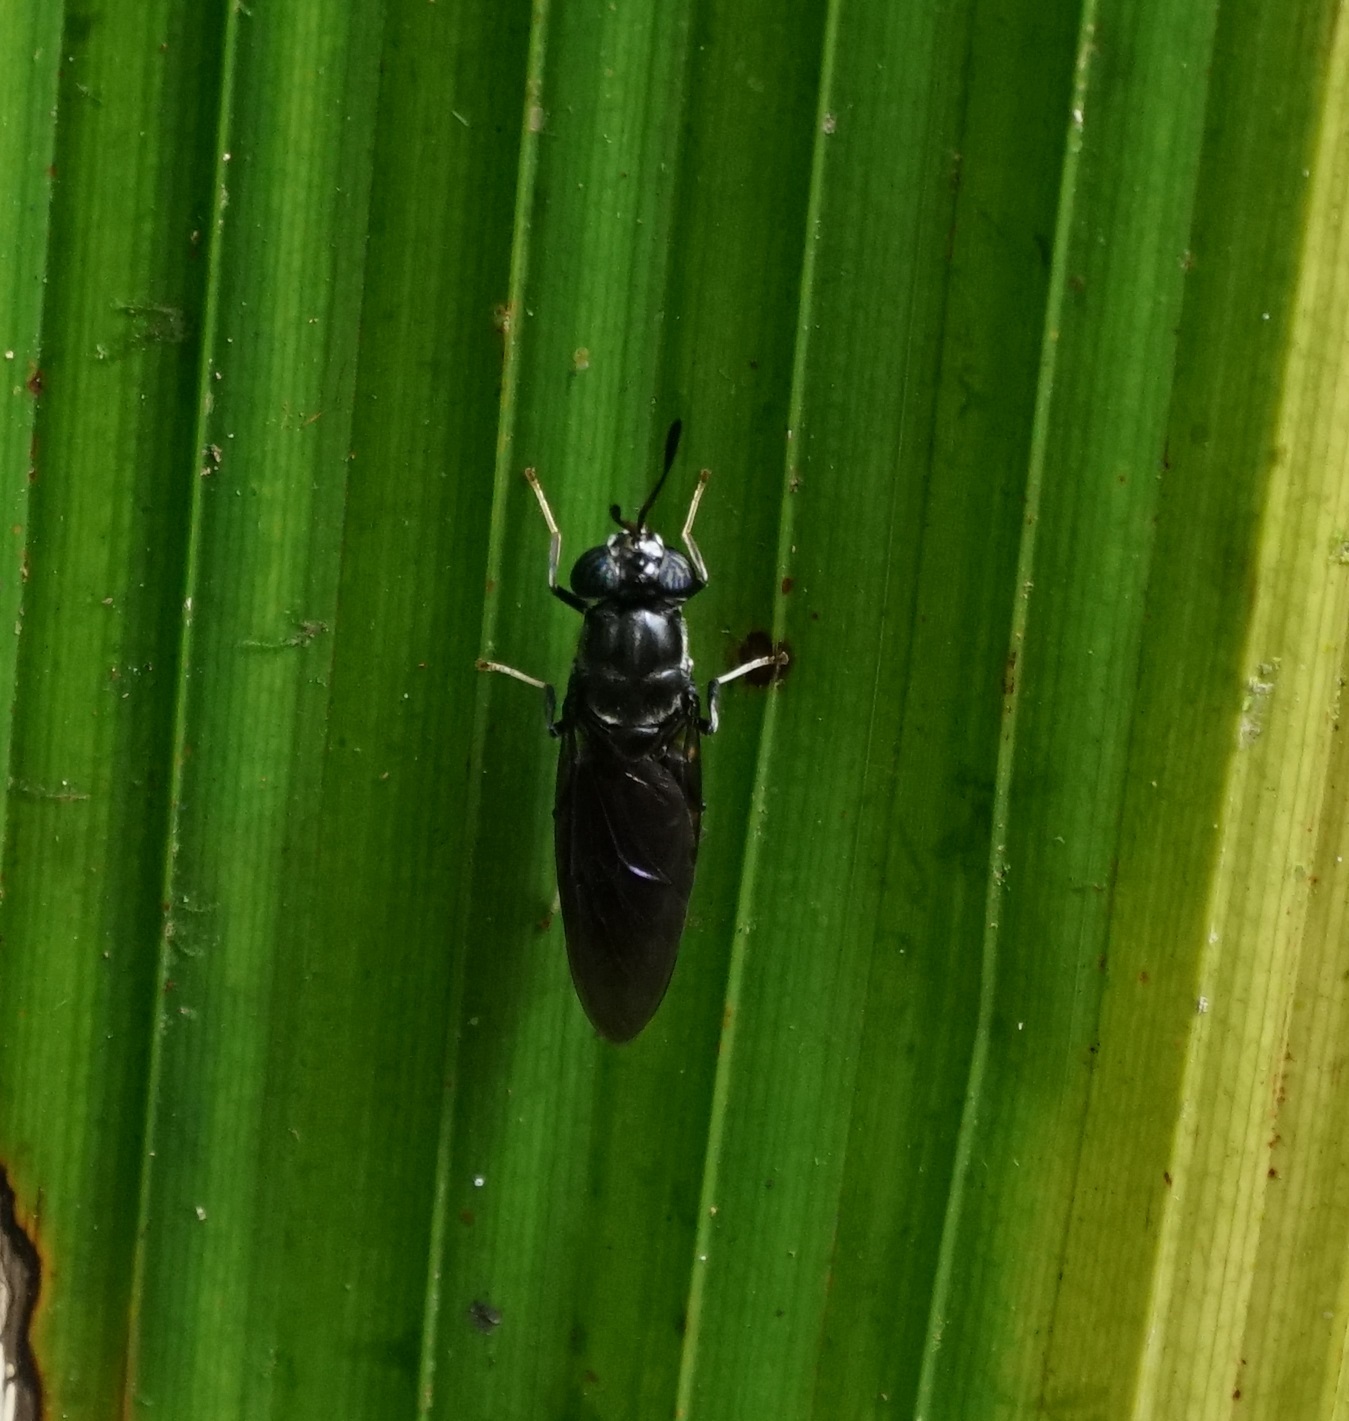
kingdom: Animalia
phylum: Arthropoda
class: Insecta
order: Diptera
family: Stratiomyidae
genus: Hermetia
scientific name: Hermetia illucens
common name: Black soldier fly
